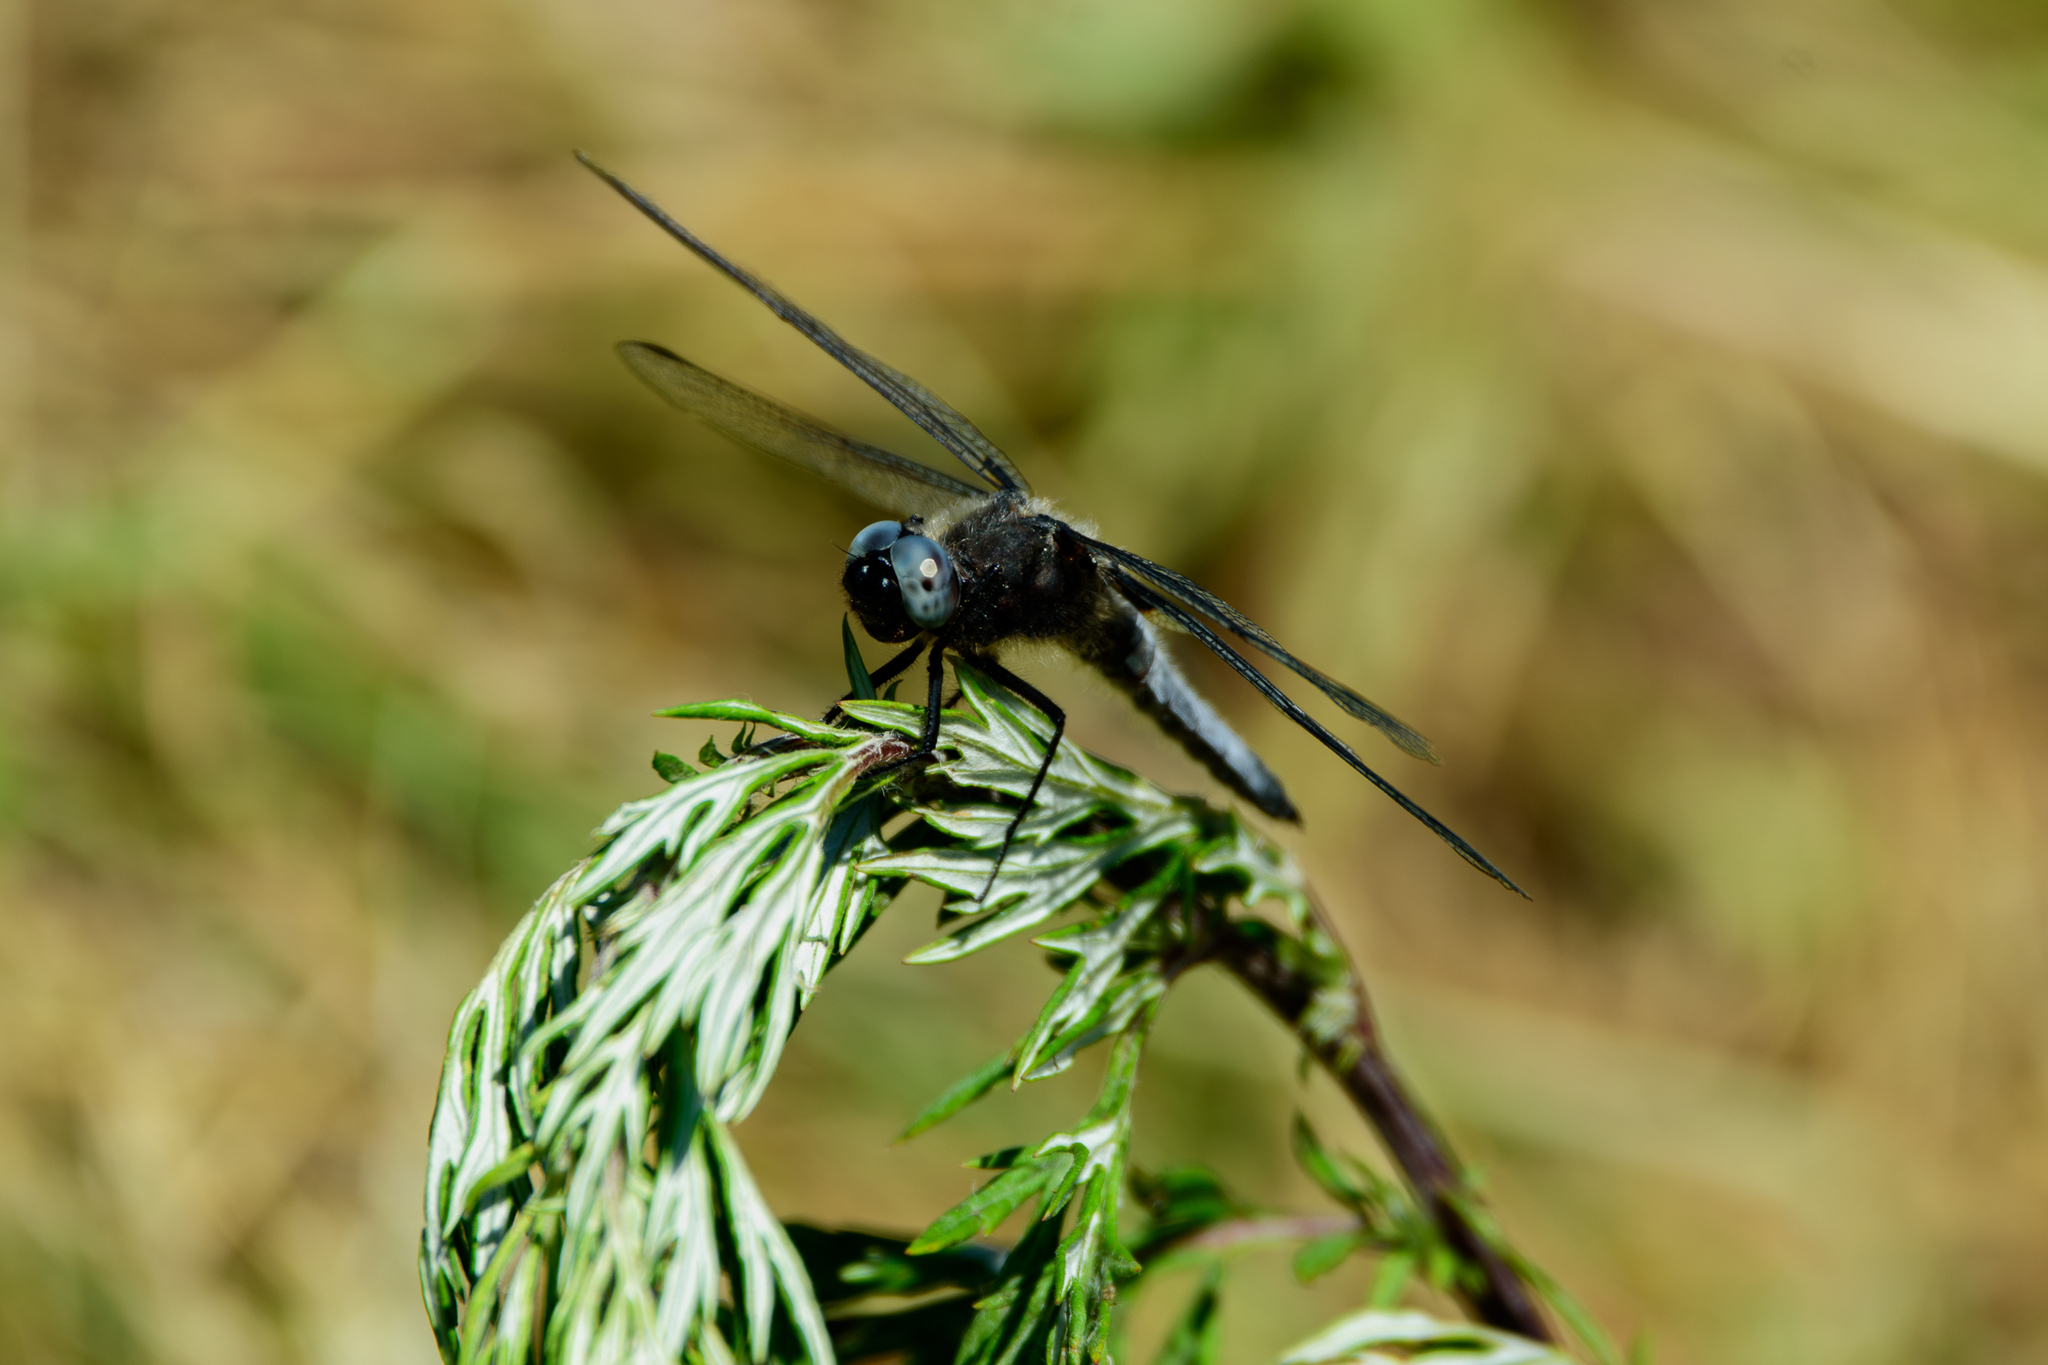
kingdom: Animalia
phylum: Arthropoda
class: Insecta
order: Odonata
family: Libellulidae
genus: Libellula
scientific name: Libellula fulva
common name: Blue chaser
